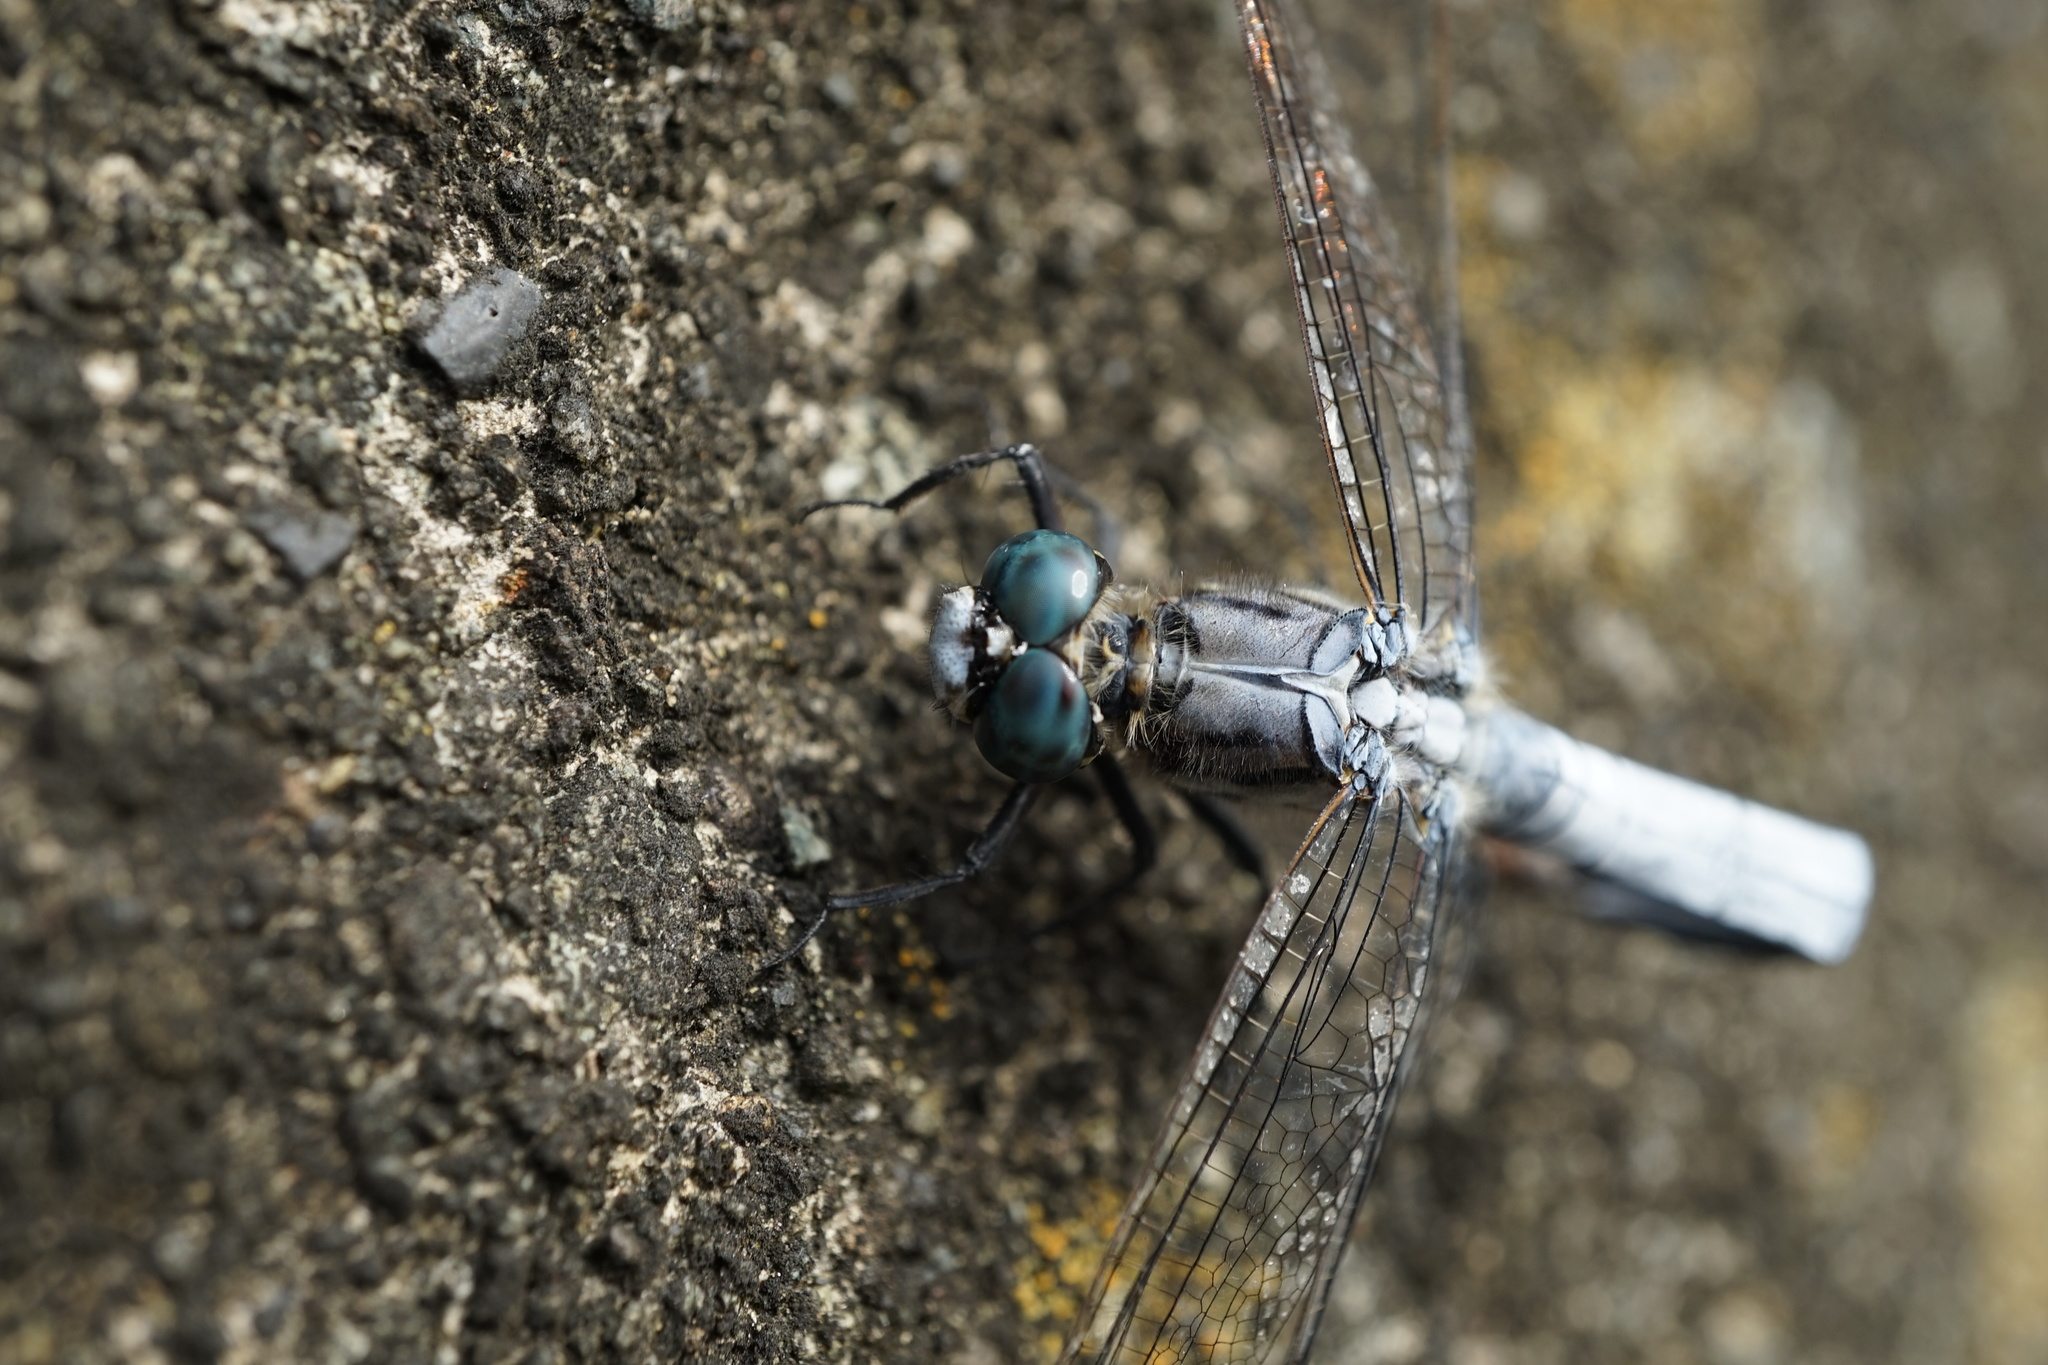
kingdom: Animalia
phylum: Arthropoda
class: Insecta
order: Odonata
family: Libellulidae
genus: Orthetrum
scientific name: Orthetrum albistylum
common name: White-tailed skimmer
